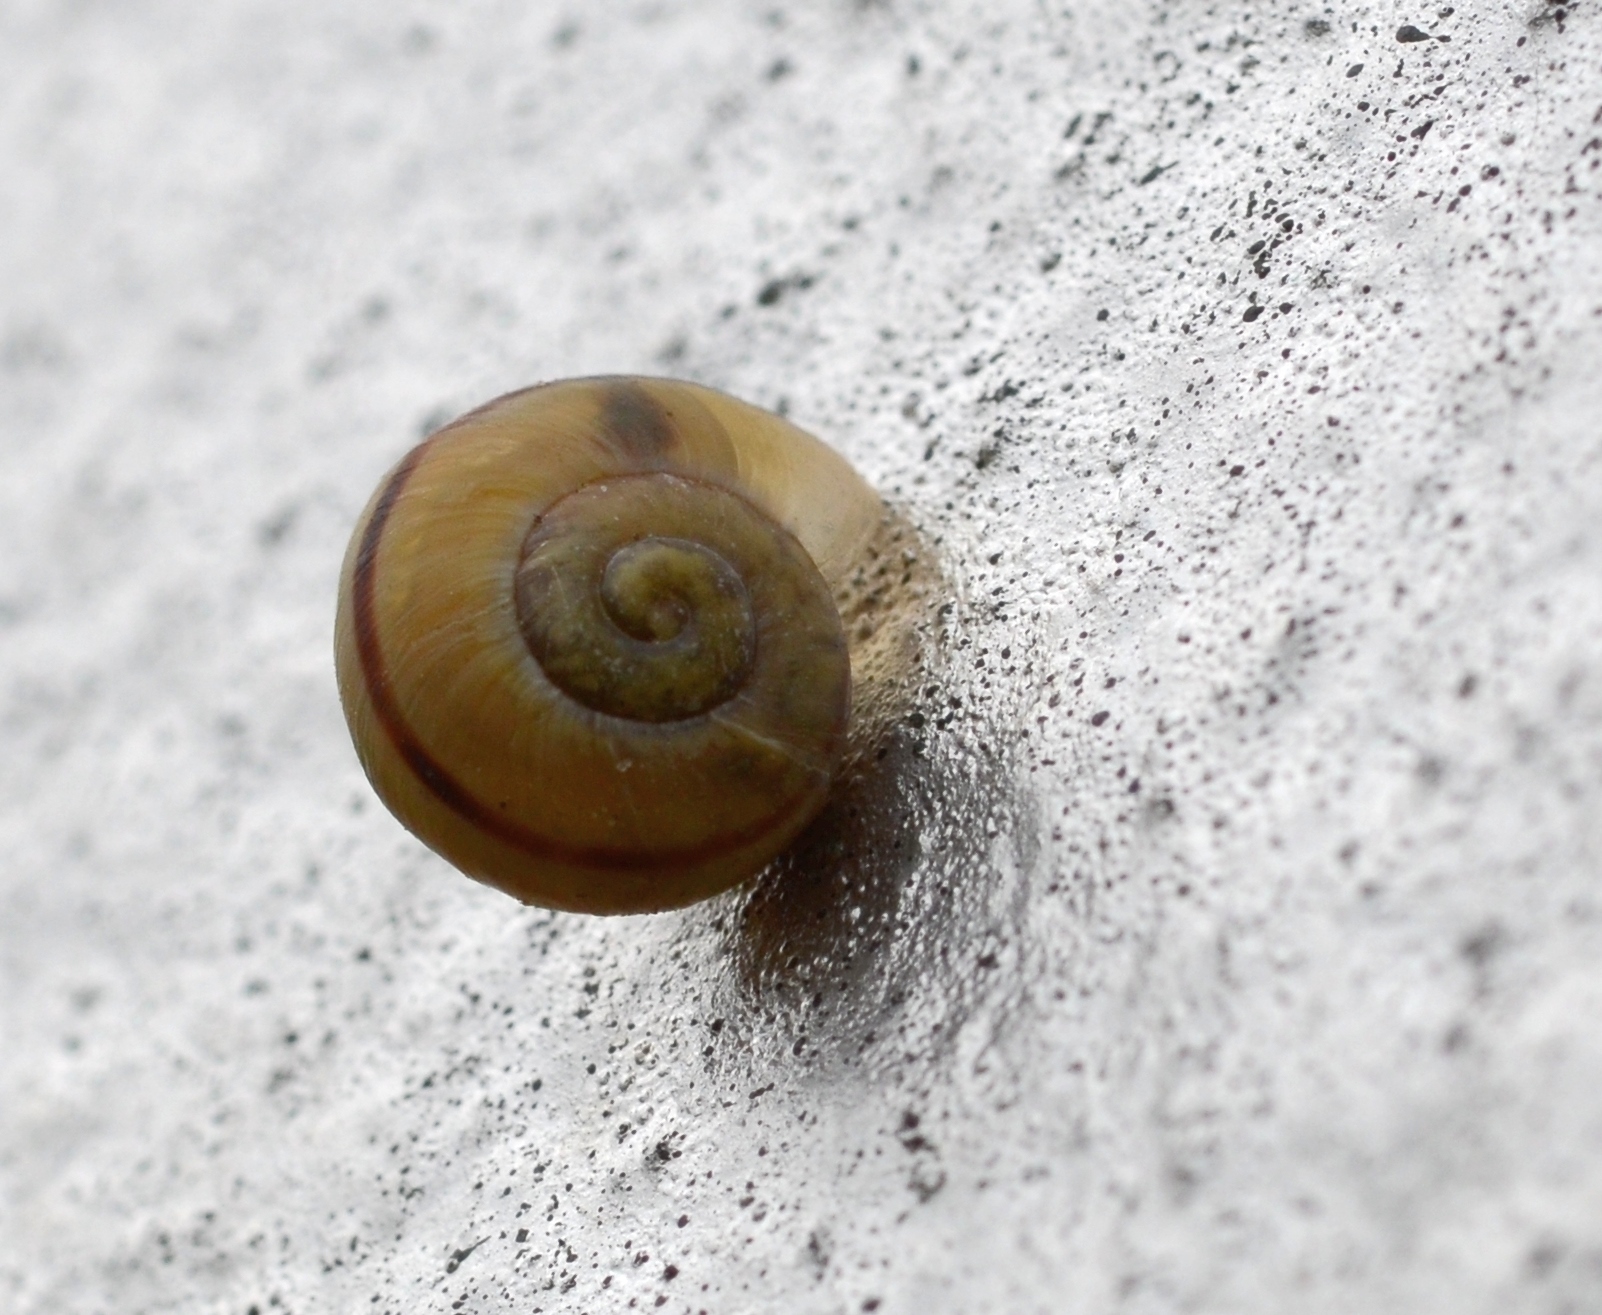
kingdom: Animalia
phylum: Mollusca
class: Gastropoda
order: Stylommatophora
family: Helicidae
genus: Cepaea
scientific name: Cepaea
